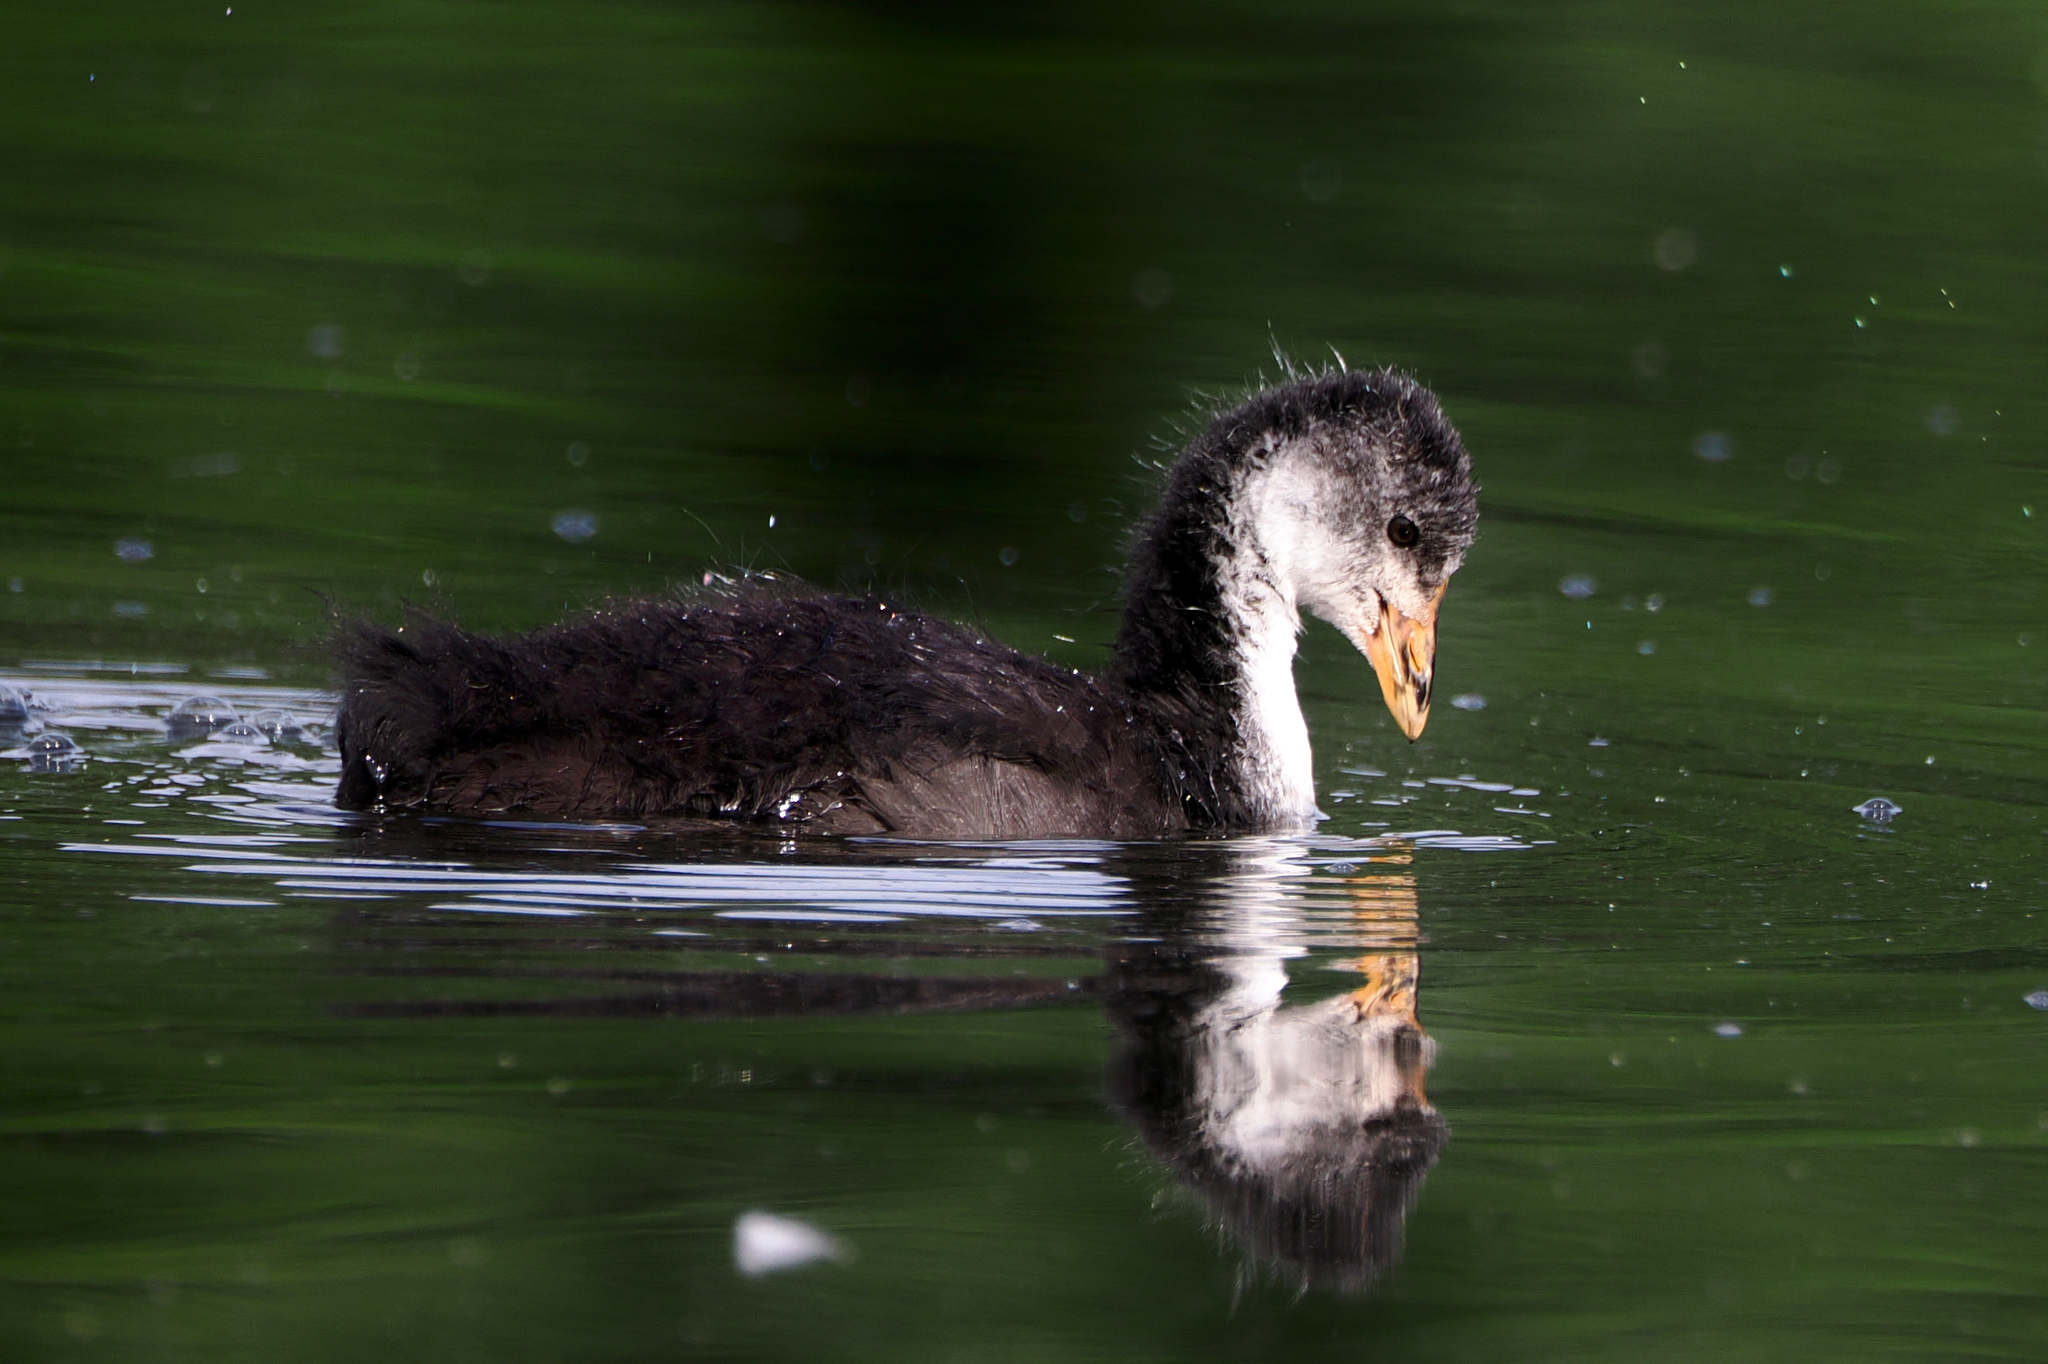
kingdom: Animalia
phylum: Chordata
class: Aves
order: Gruiformes
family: Rallidae
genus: Fulica
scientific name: Fulica atra
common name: Eurasian coot
